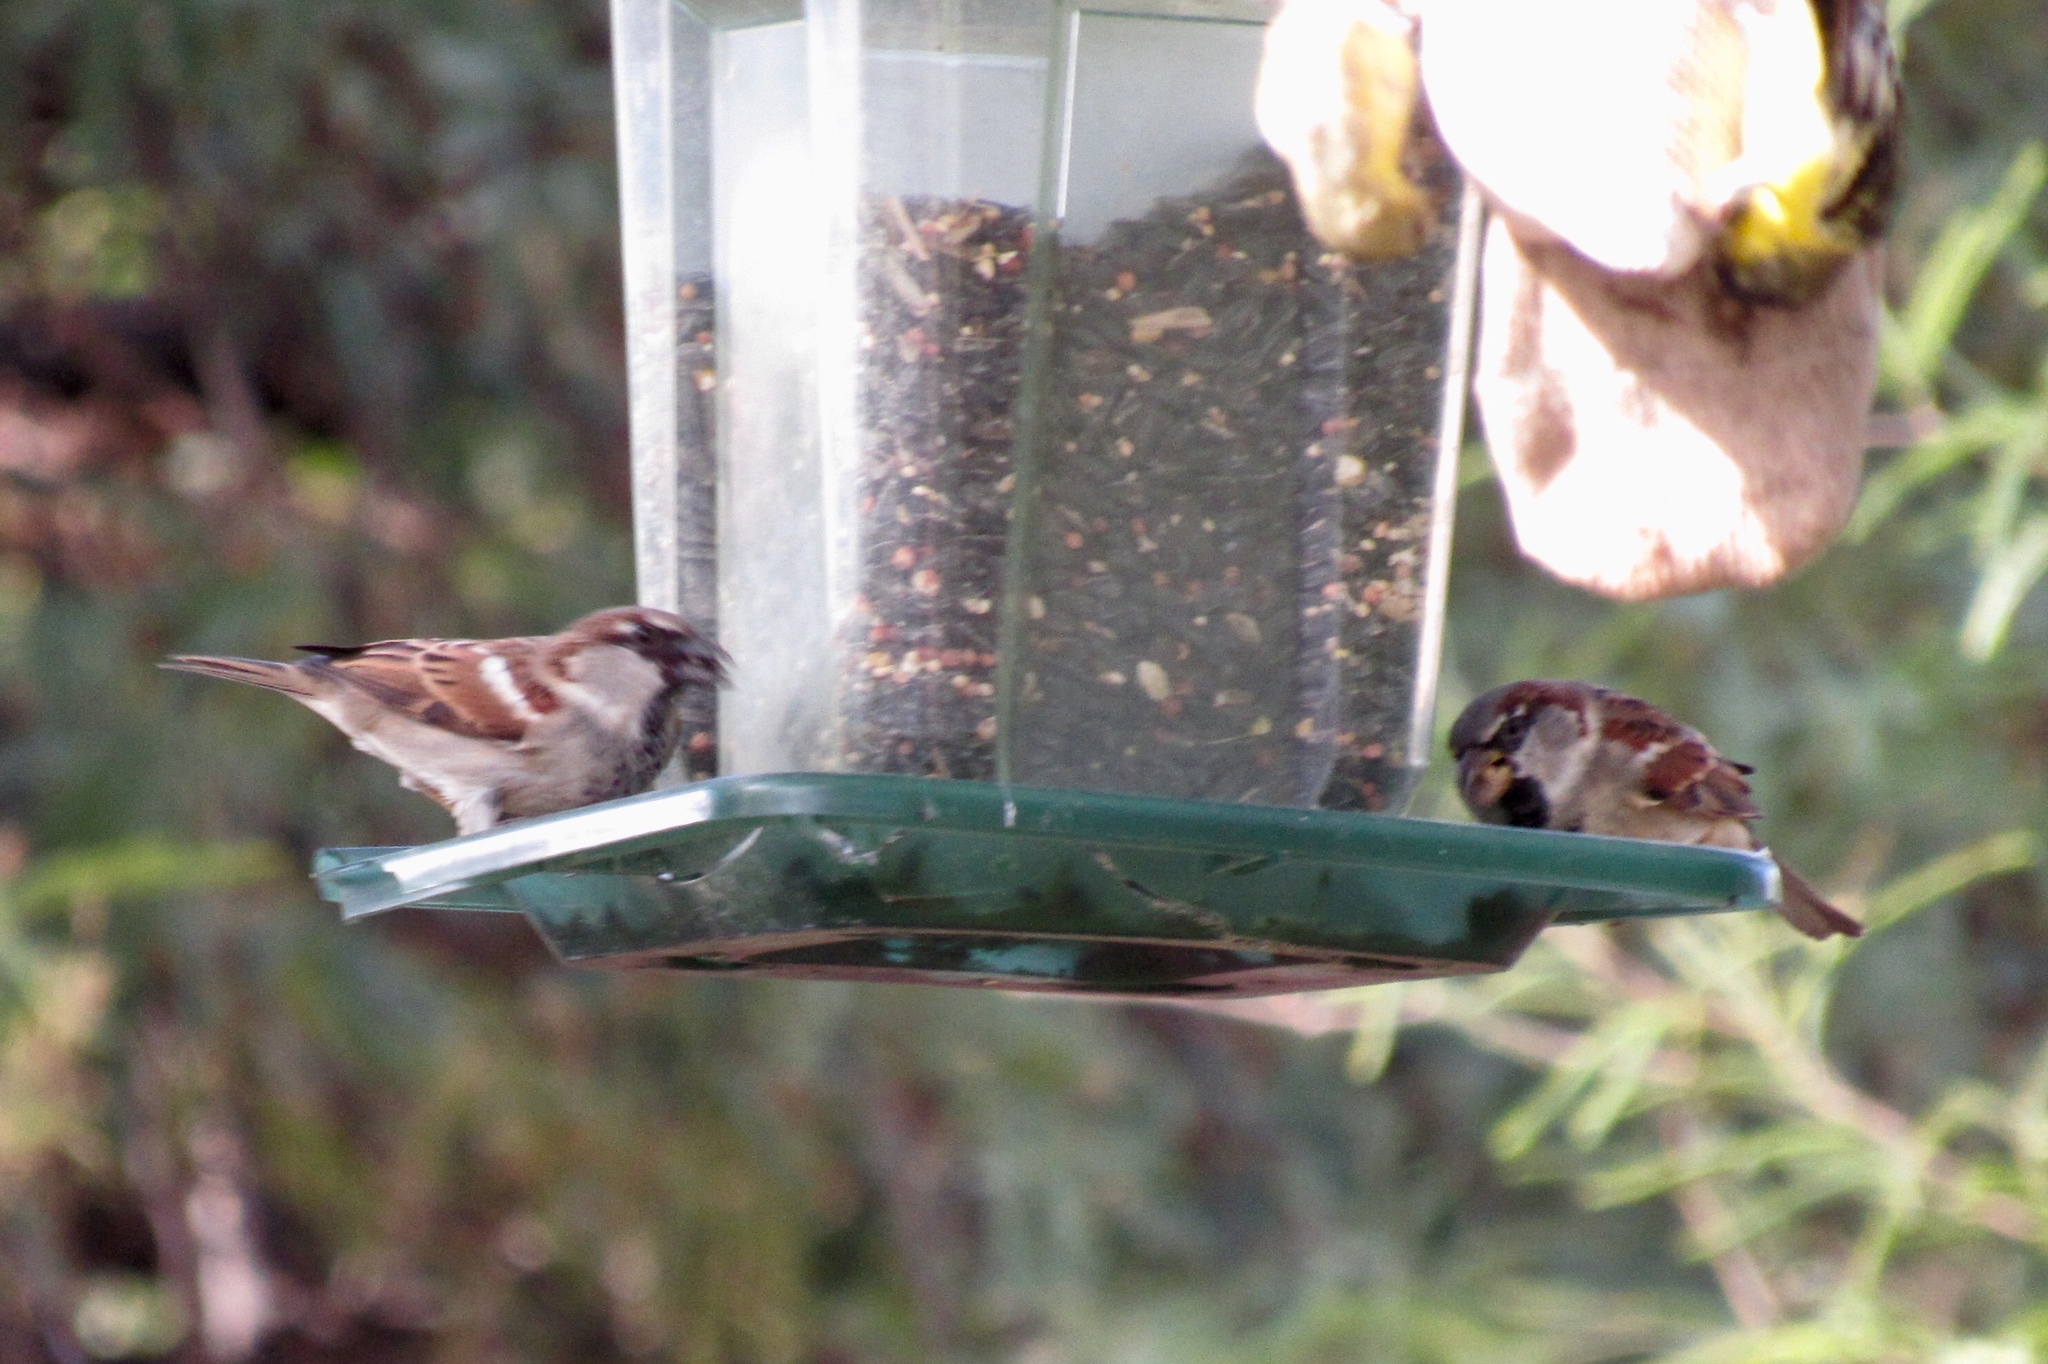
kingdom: Animalia
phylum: Chordata
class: Aves
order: Passeriformes
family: Passeridae
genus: Passer
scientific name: Passer domesticus
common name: House sparrow
